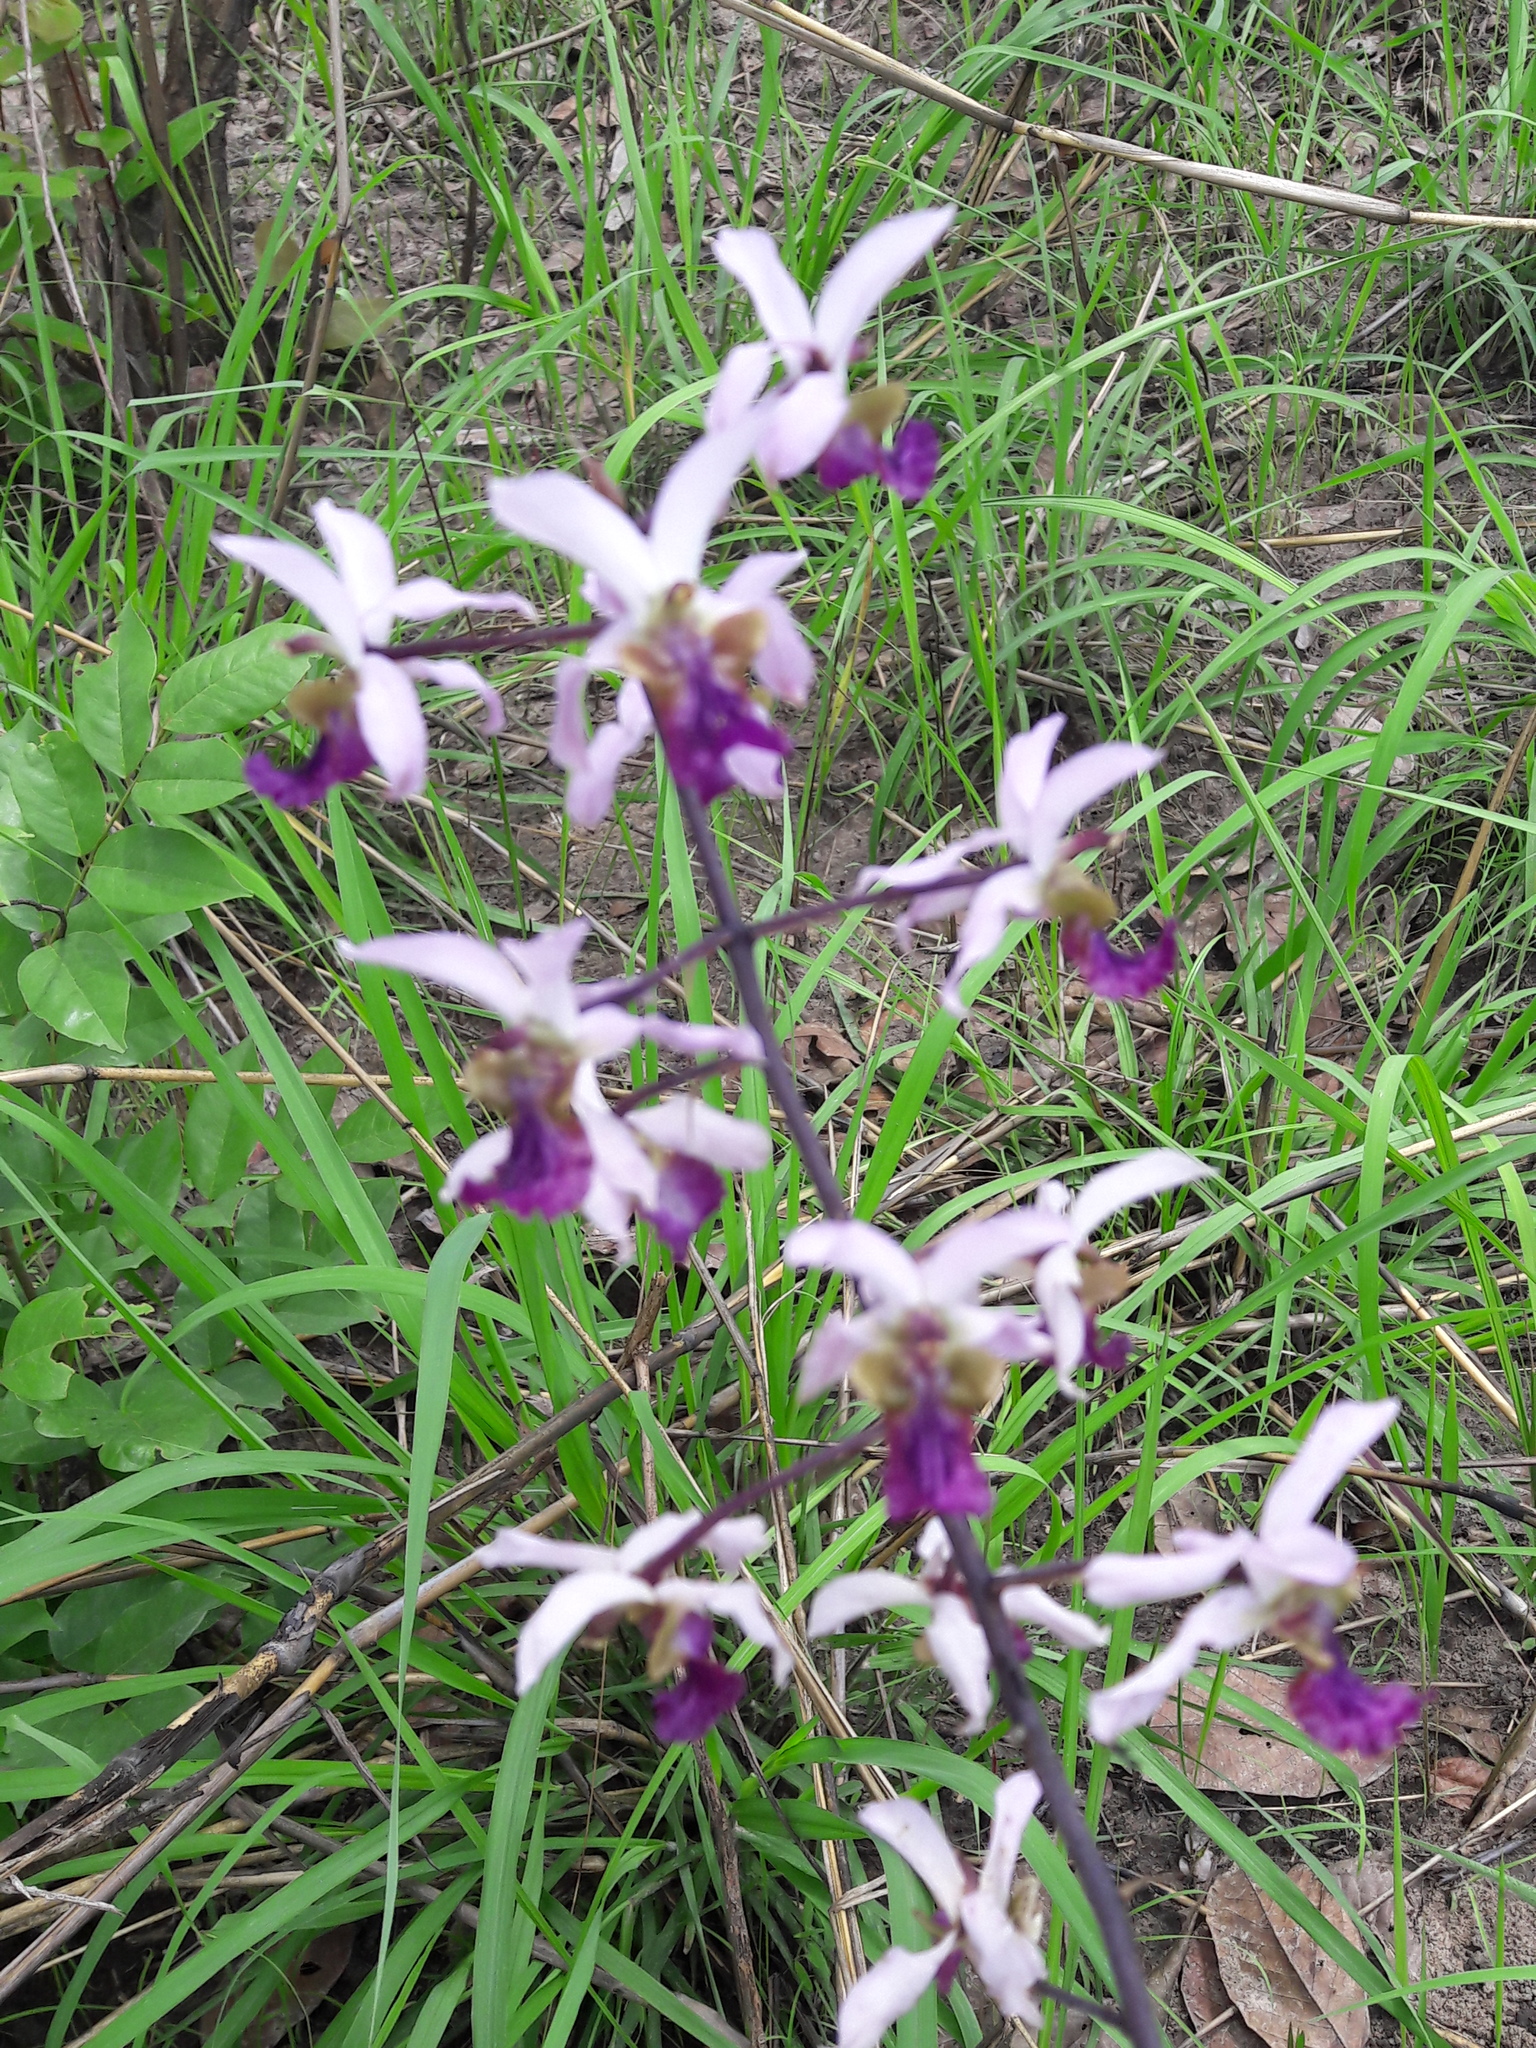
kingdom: Plantae
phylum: Tracheophyta
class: Liliopsida
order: Asparagales
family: Orchidaceae
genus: Eulophia
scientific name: Eulophia cristata
